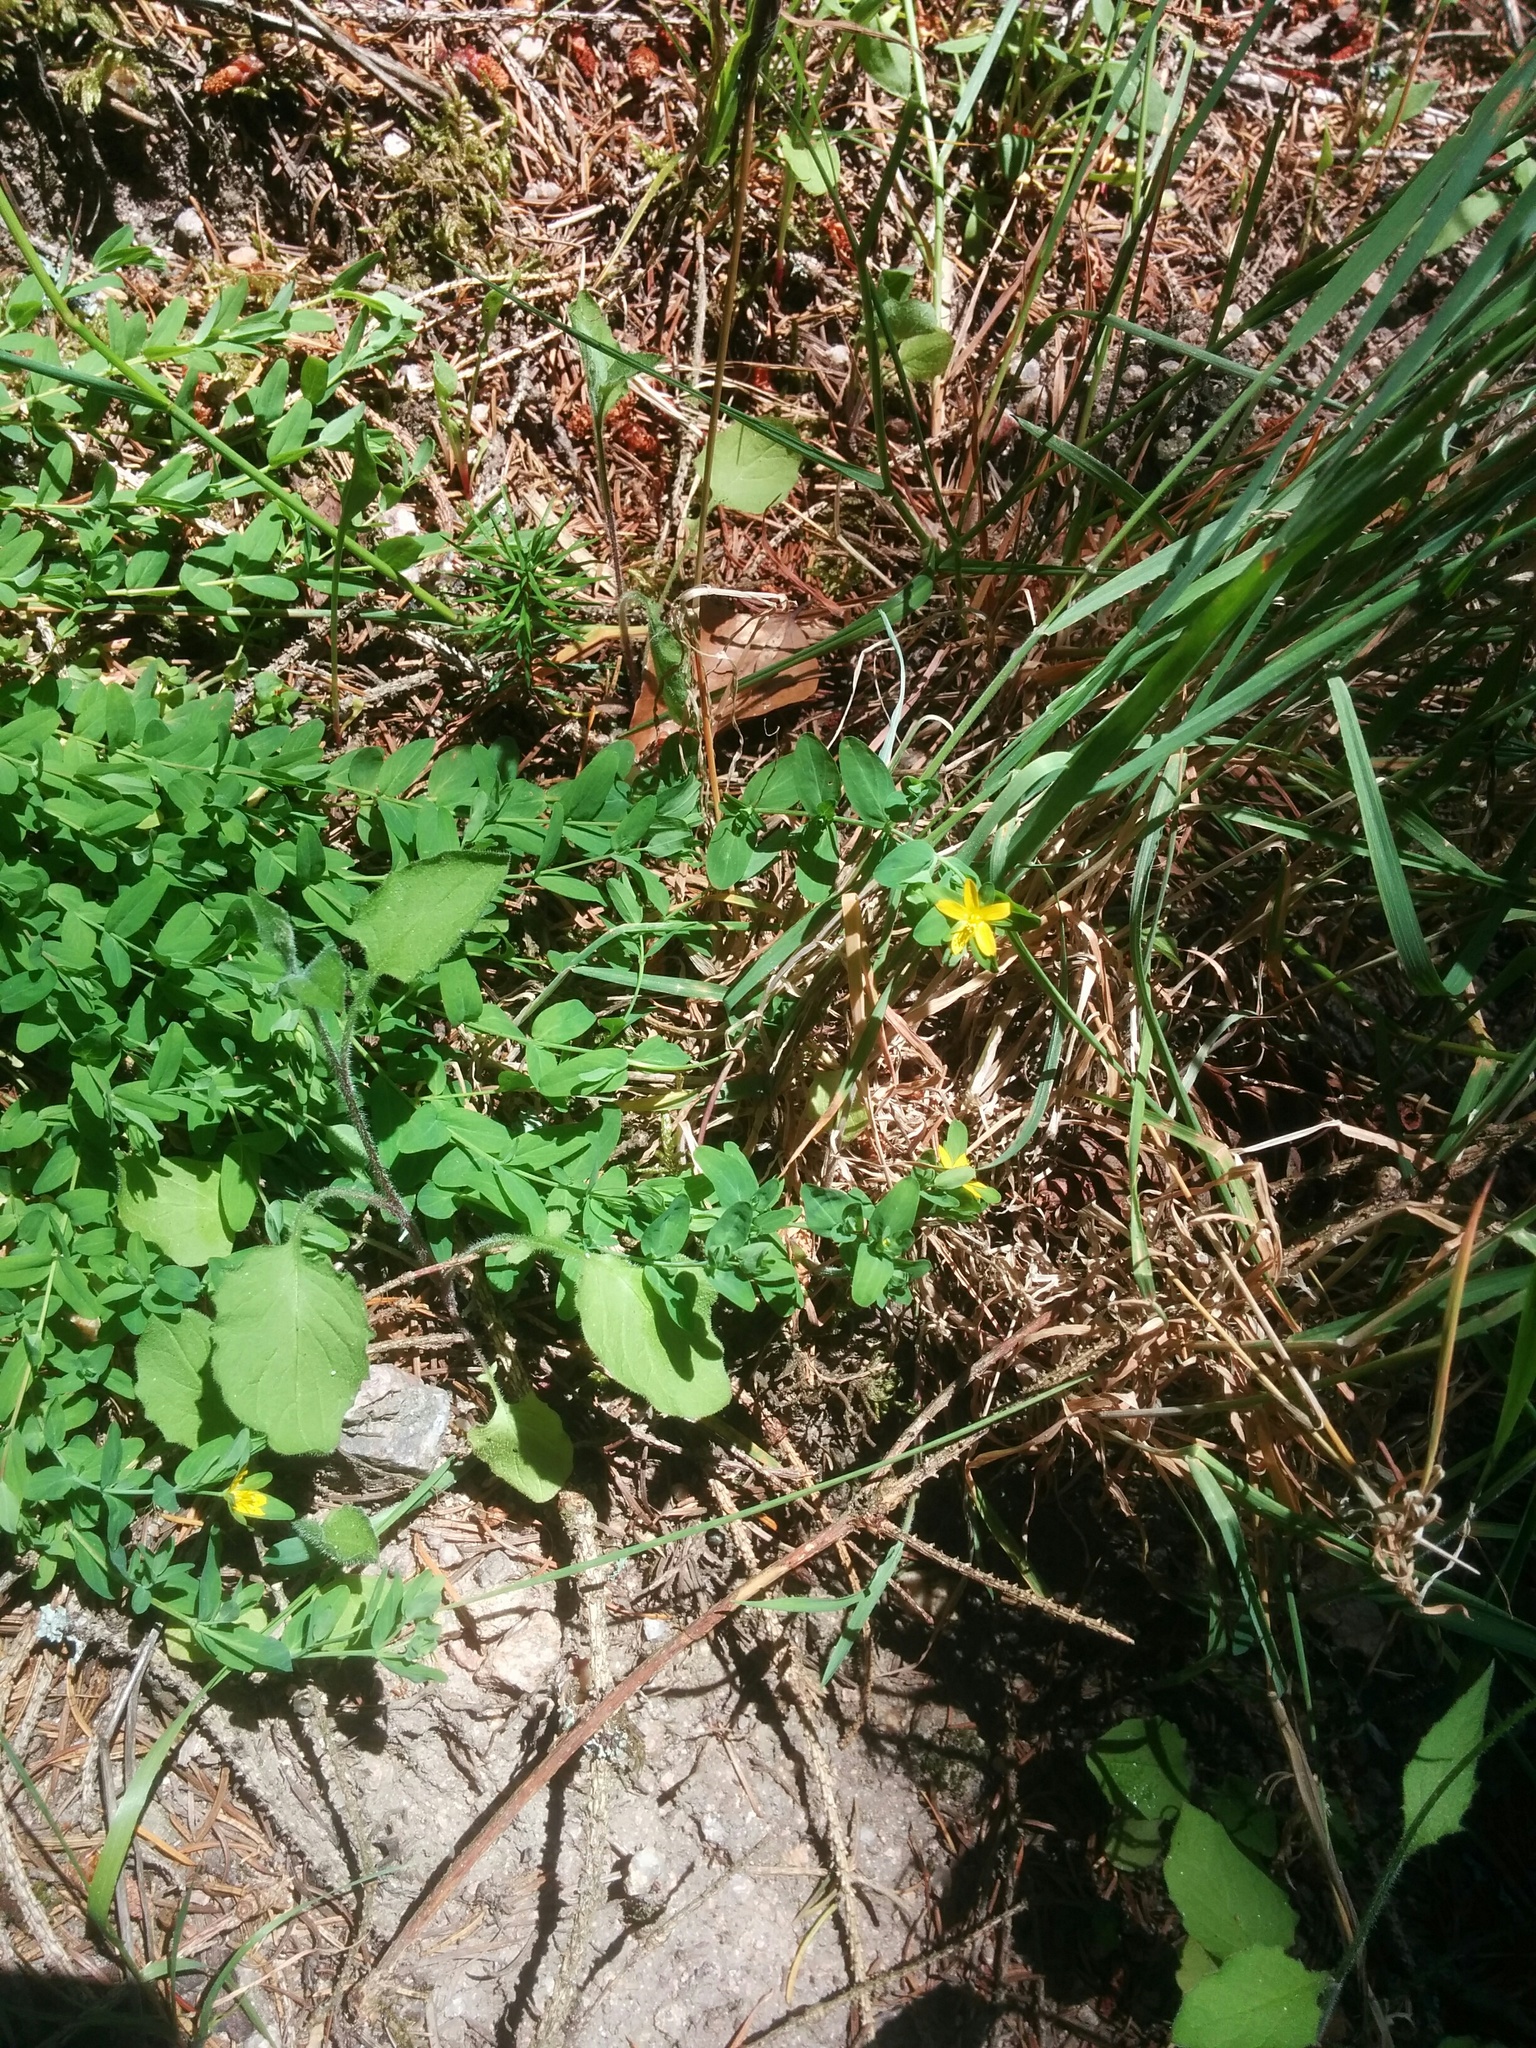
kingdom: Plantae
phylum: Tracheophyta
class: Magnoliopsida
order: Malpighiales
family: Hypericaceae
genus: Hypericum
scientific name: Hypericum humifusum
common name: Trailing st. john's-wort
